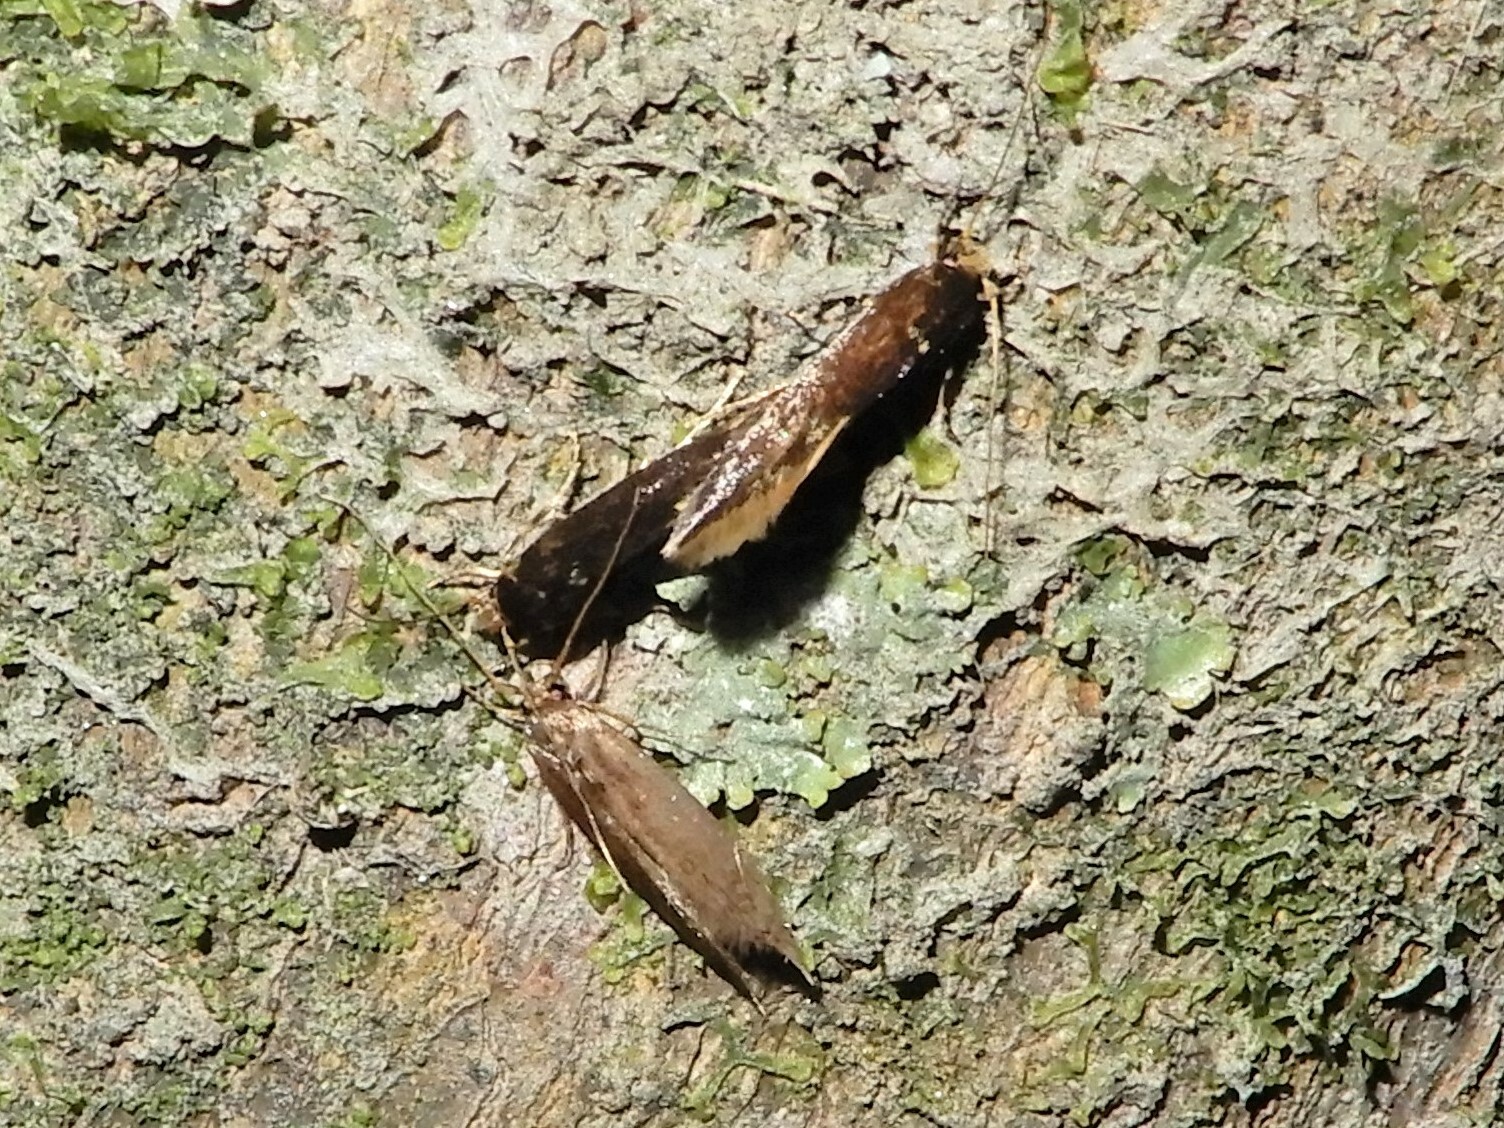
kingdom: Animalia
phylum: Arthropoda
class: Insecta
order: Lepidoptera
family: Tineidae
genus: Opogona
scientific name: Opogona omoscopa
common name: Moth
